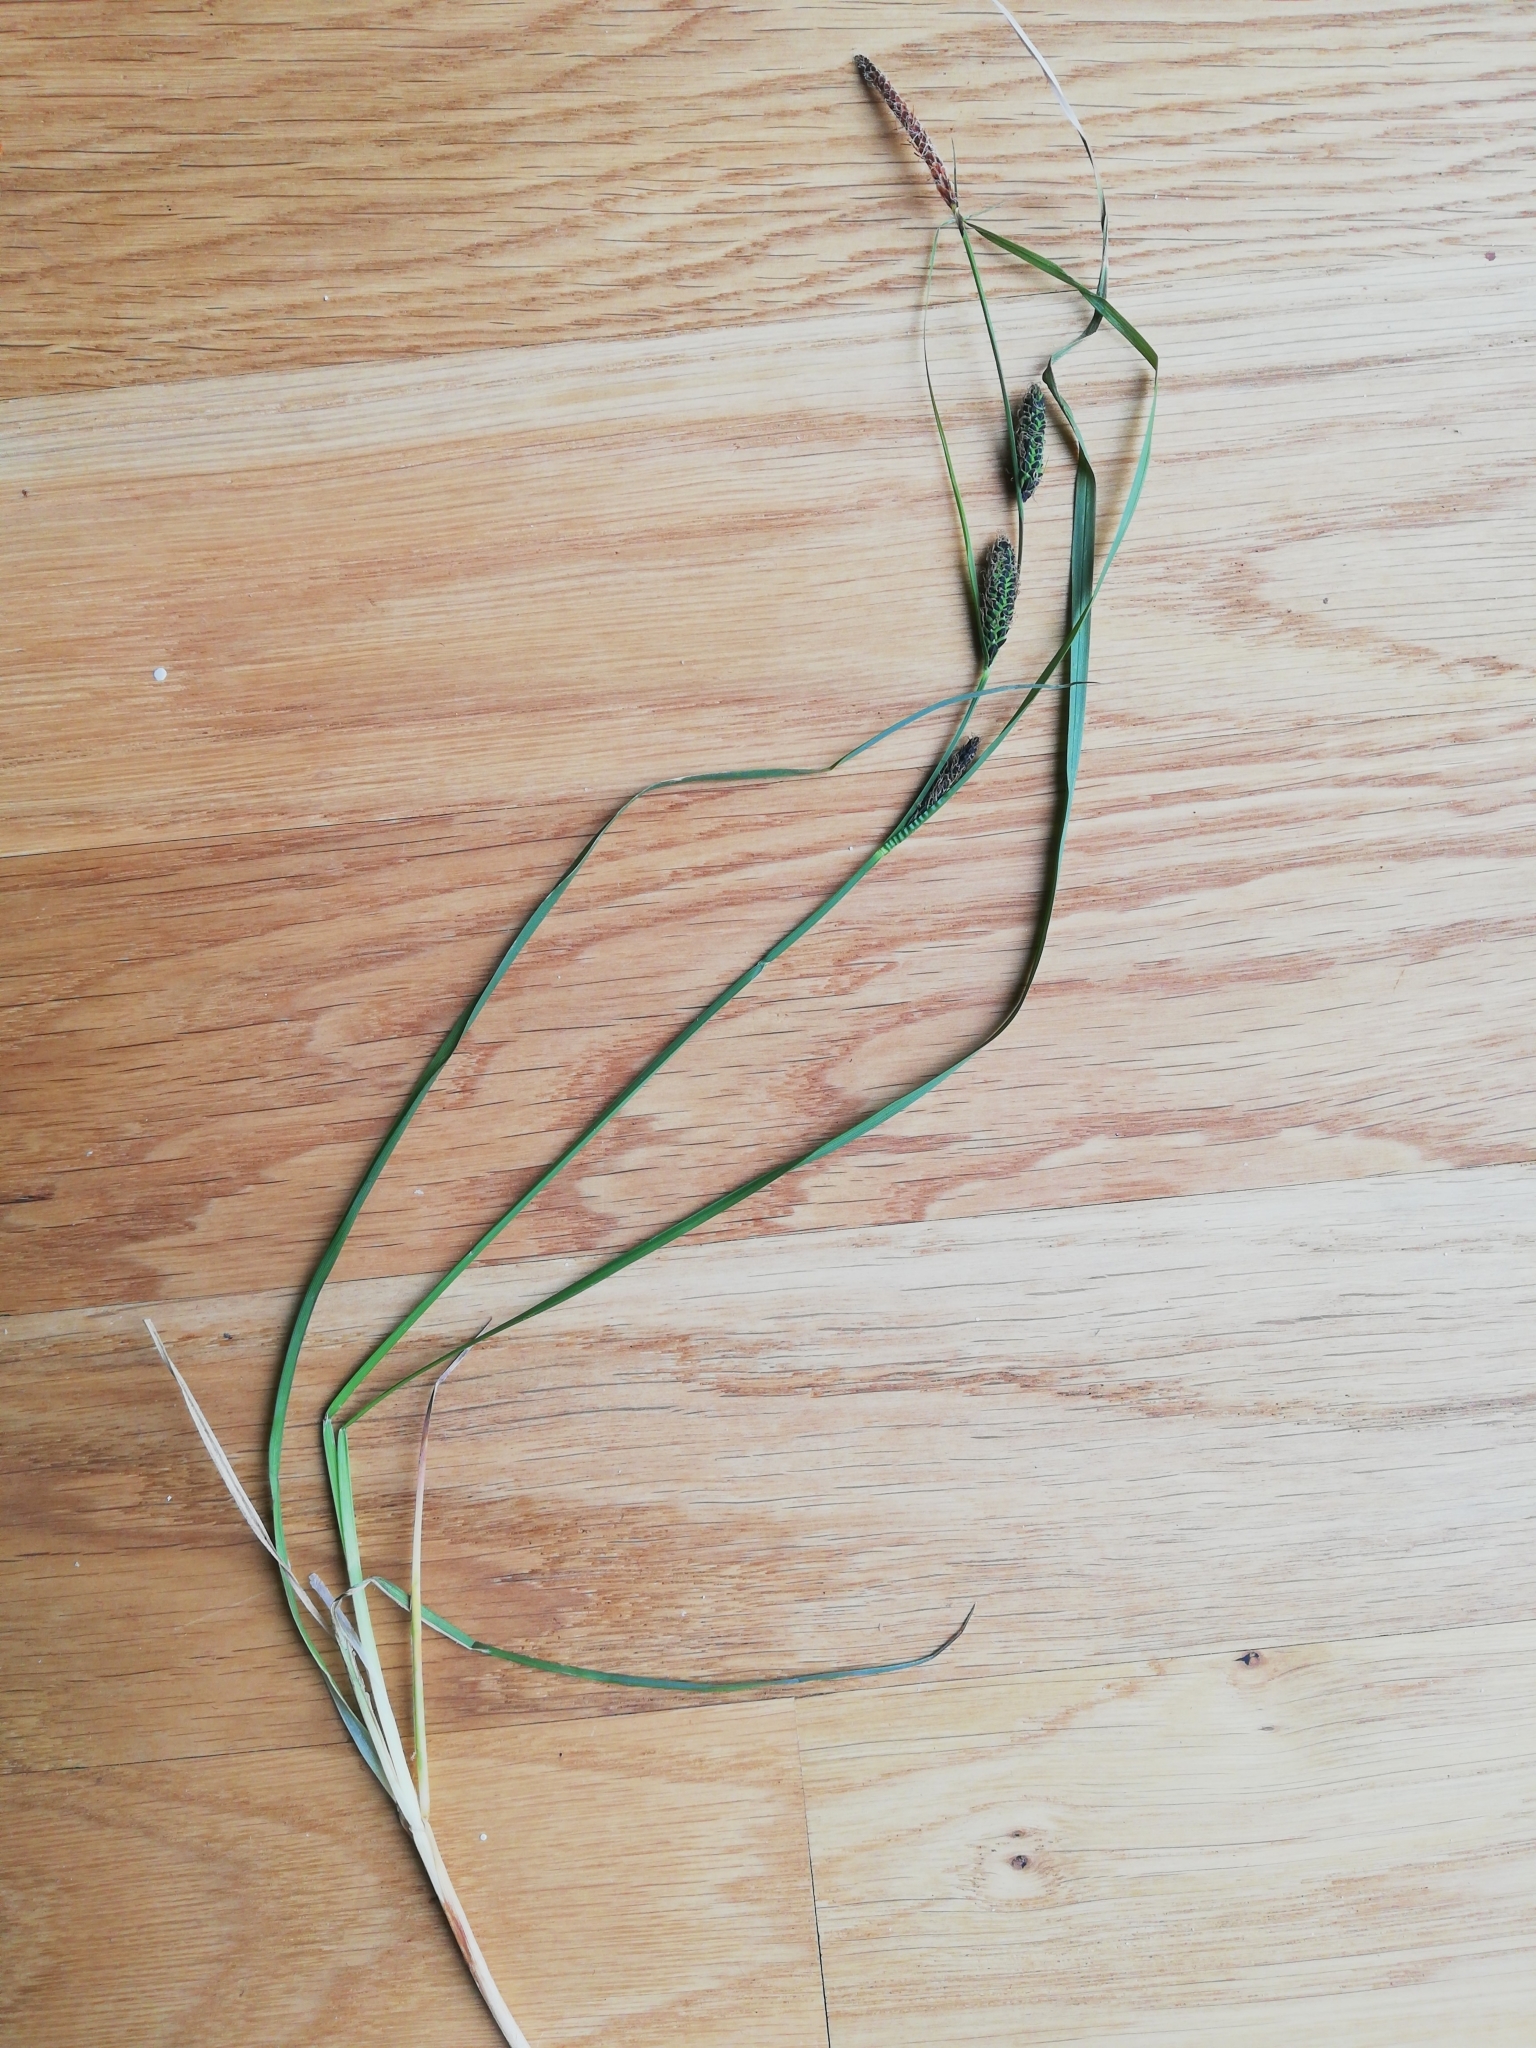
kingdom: Plantae
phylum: Tracheophyta
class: Liliopsida
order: Poales
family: Cyperaceae
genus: Carex
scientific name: Carex nigra
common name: Common sedge
